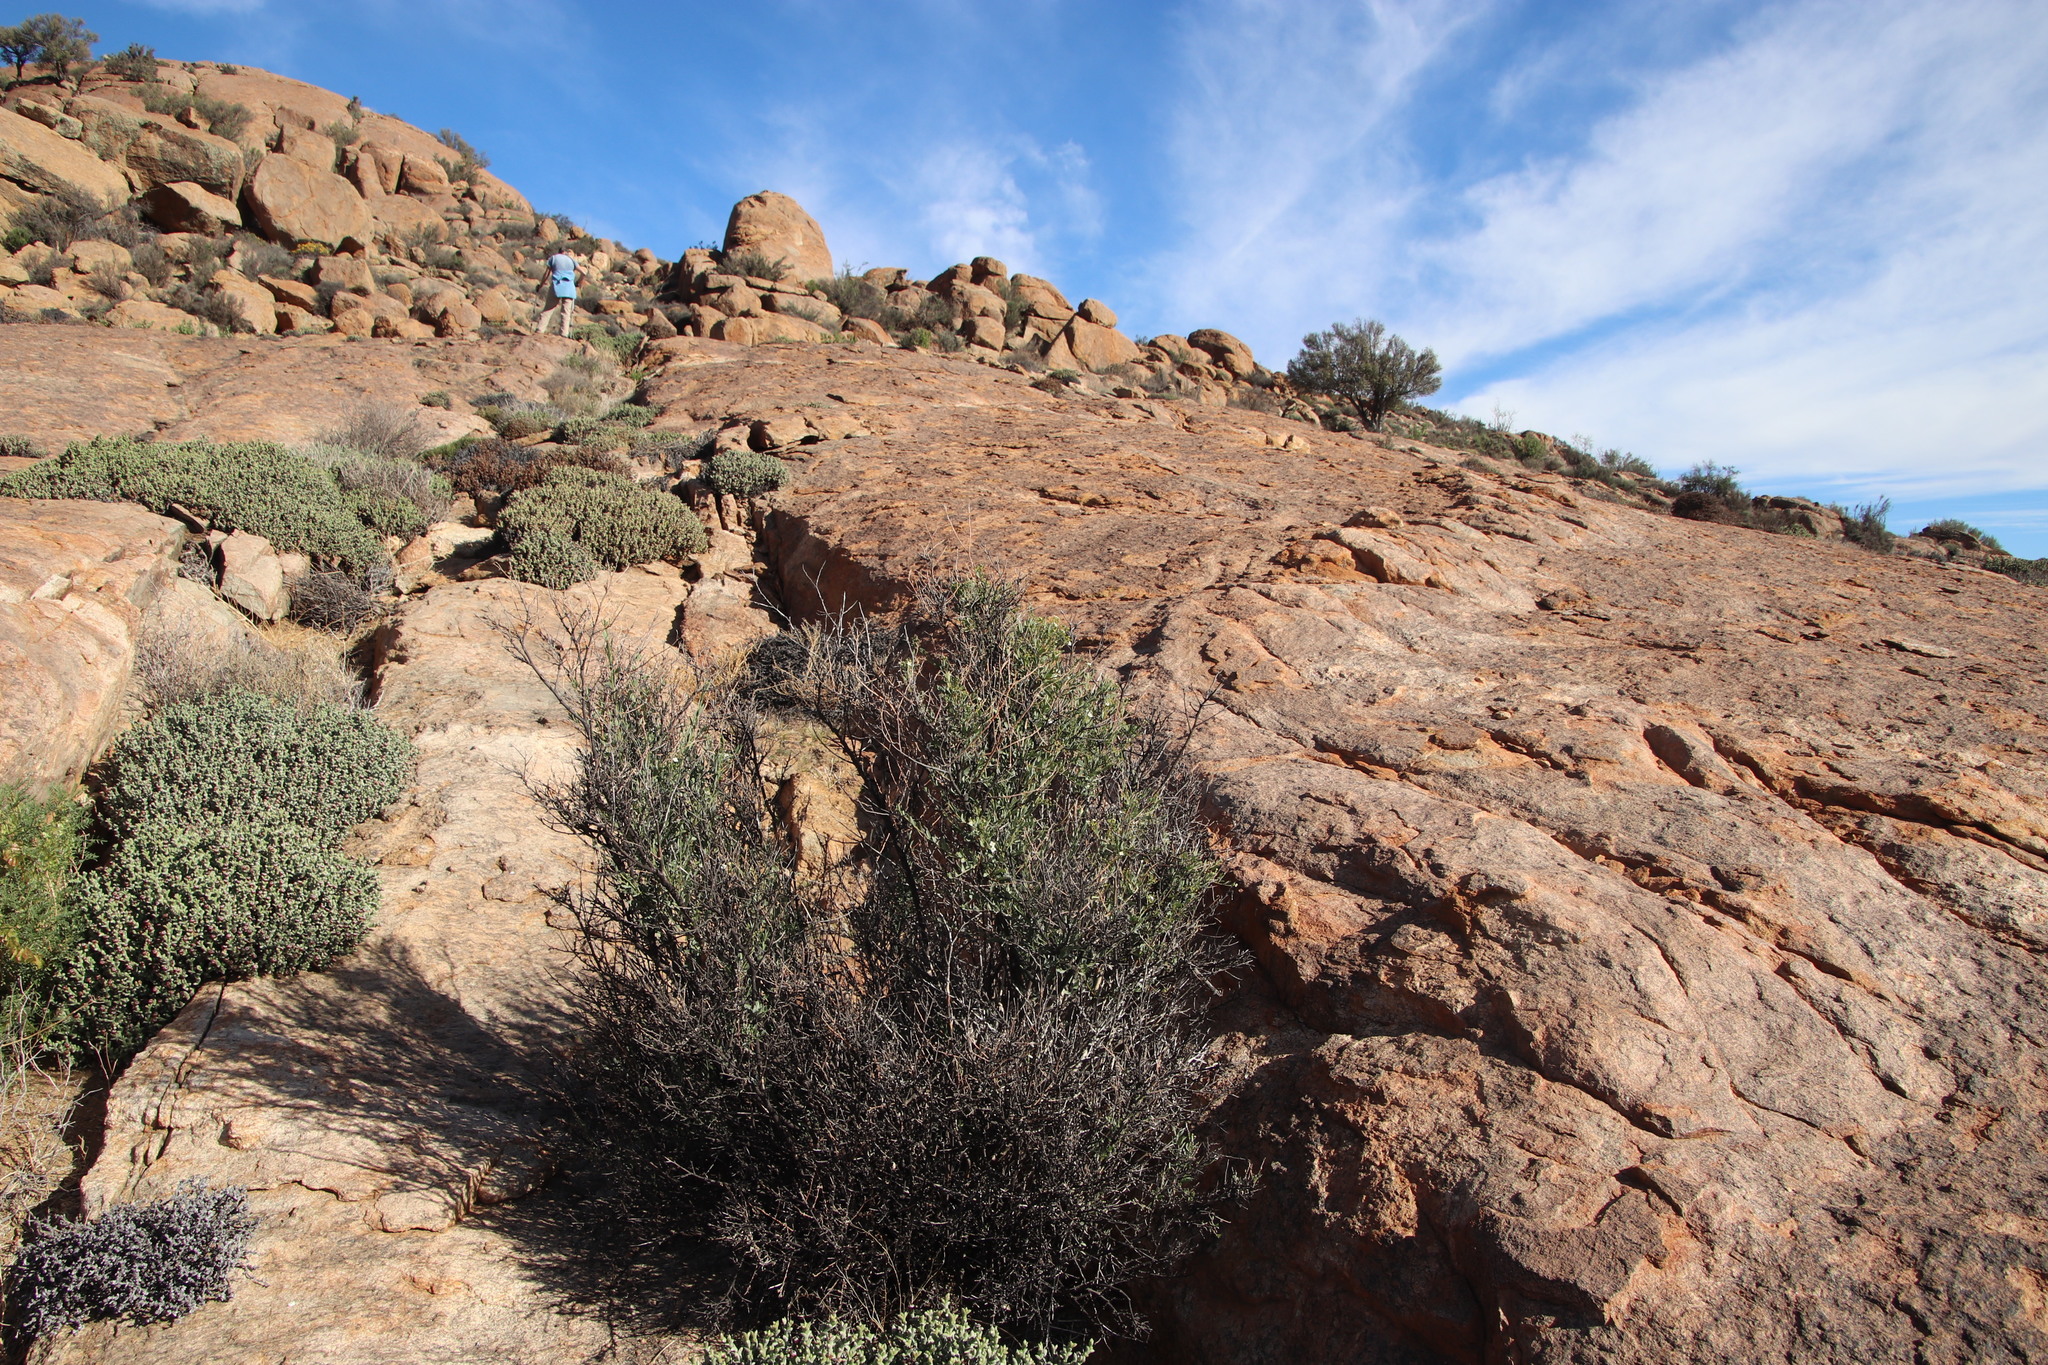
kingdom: Plantae
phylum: Tracheophyta
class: Magnoliopsida
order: Solanales
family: Montiniaceae
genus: Montinia
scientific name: Montinia caryophyllacea
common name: Wild clove-bush
